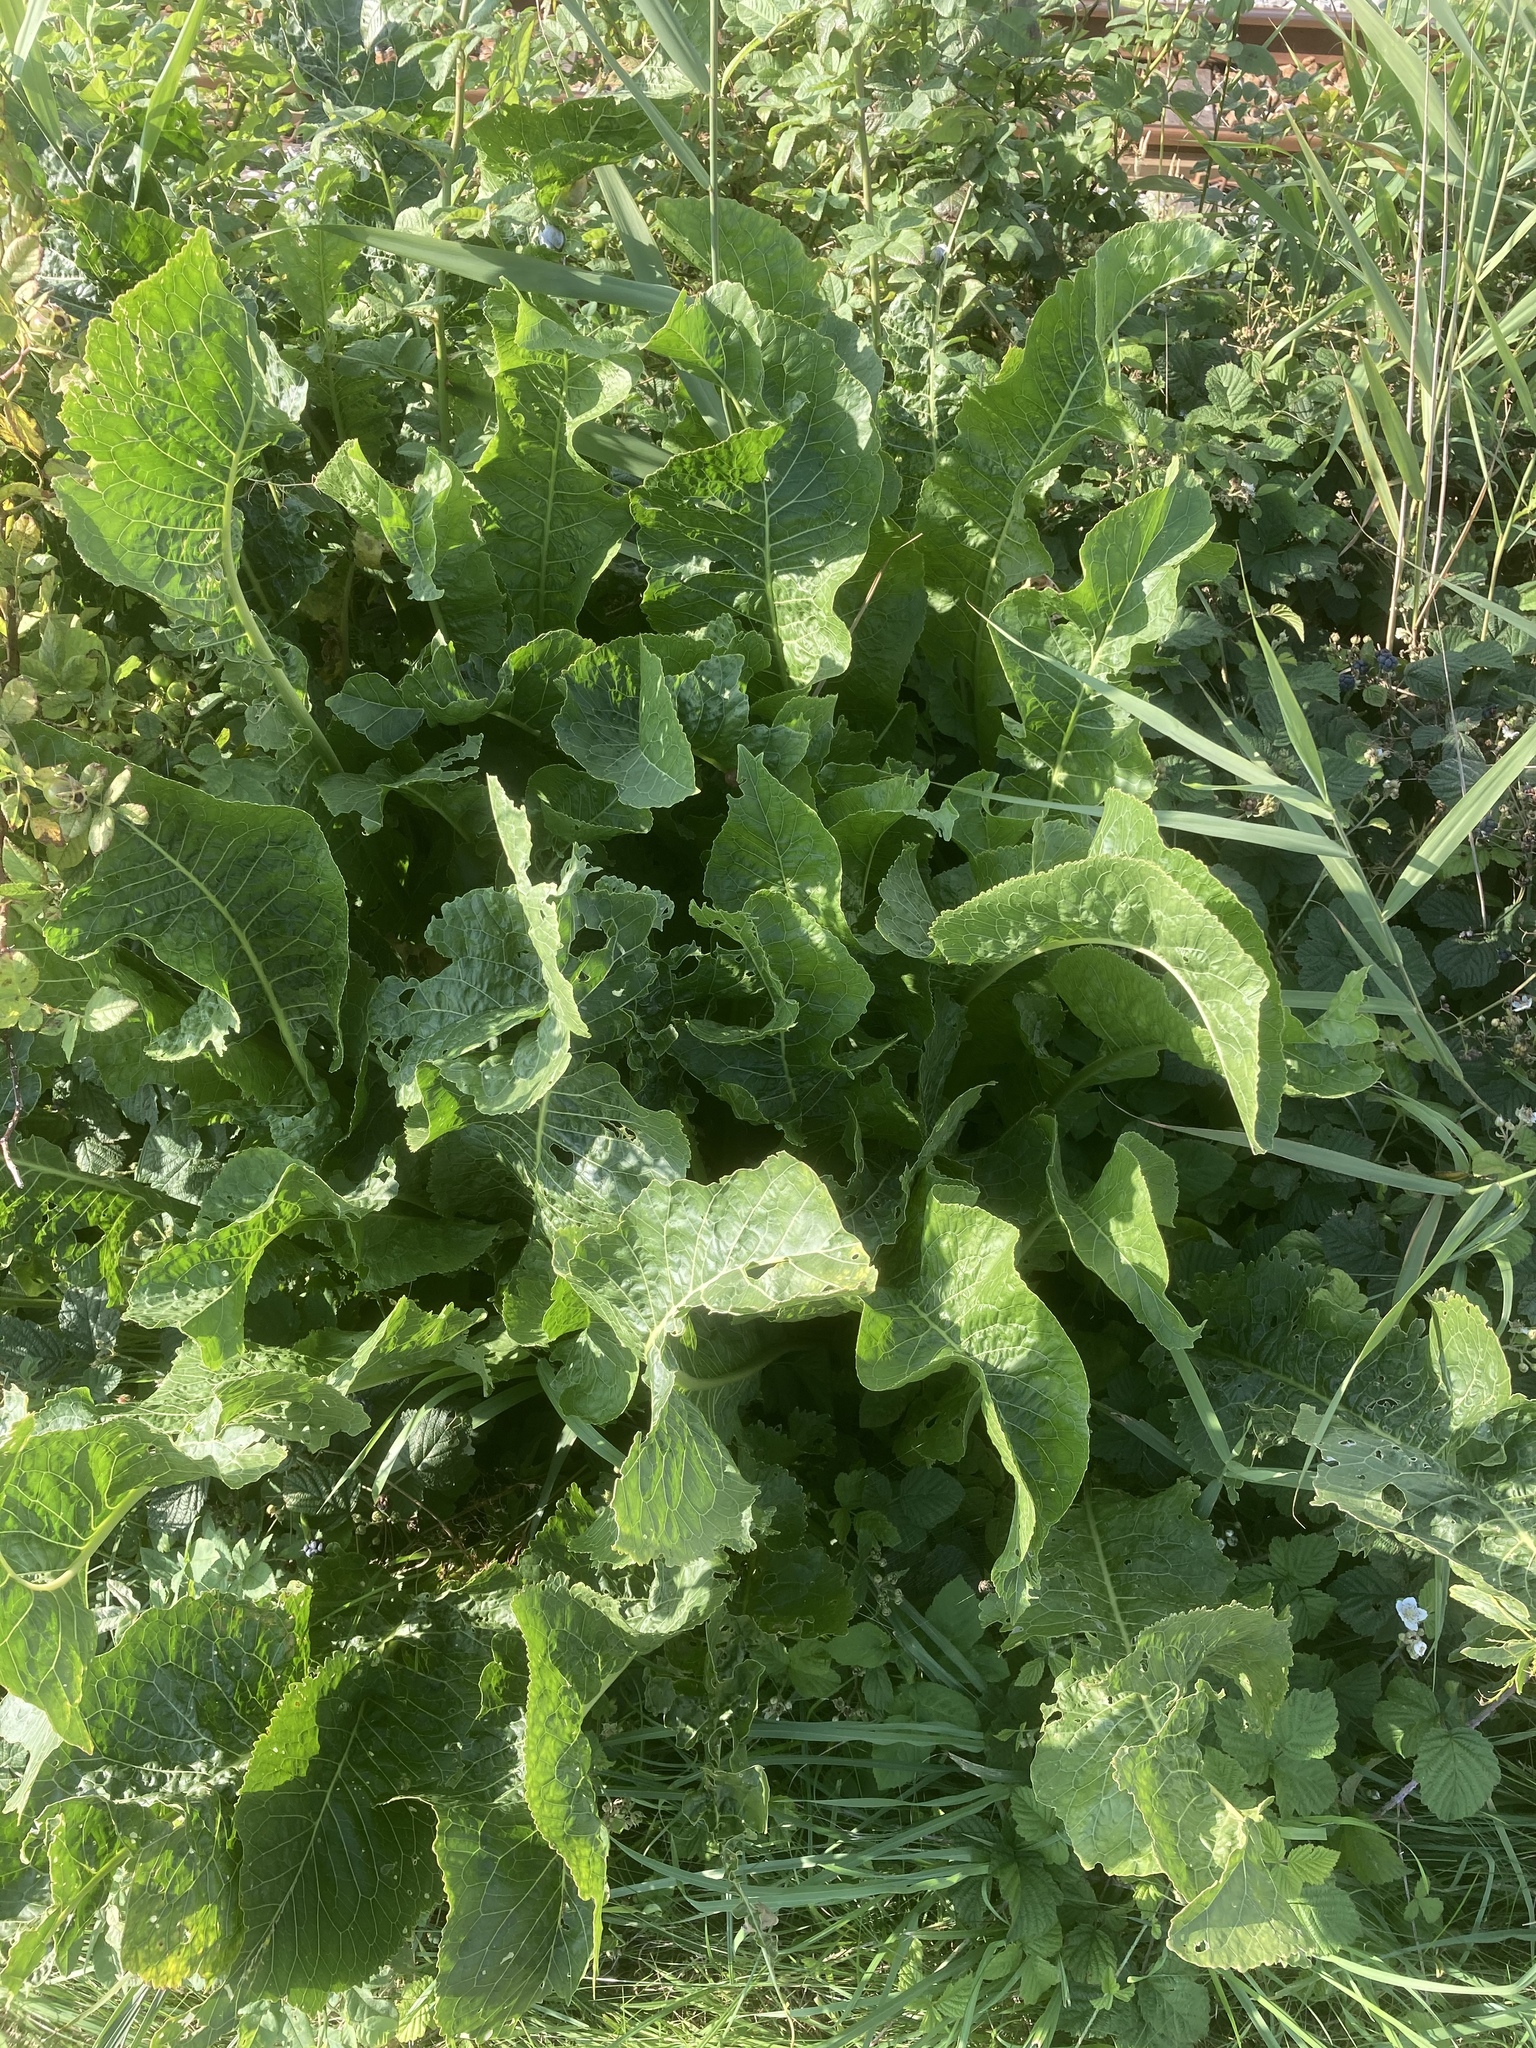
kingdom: Plantae
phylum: Tracheophyta
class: Magnoliopsida
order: Brassicales
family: Brassicaceae
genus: Armoracia
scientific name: Armoracia rusticana
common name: Horseradish
